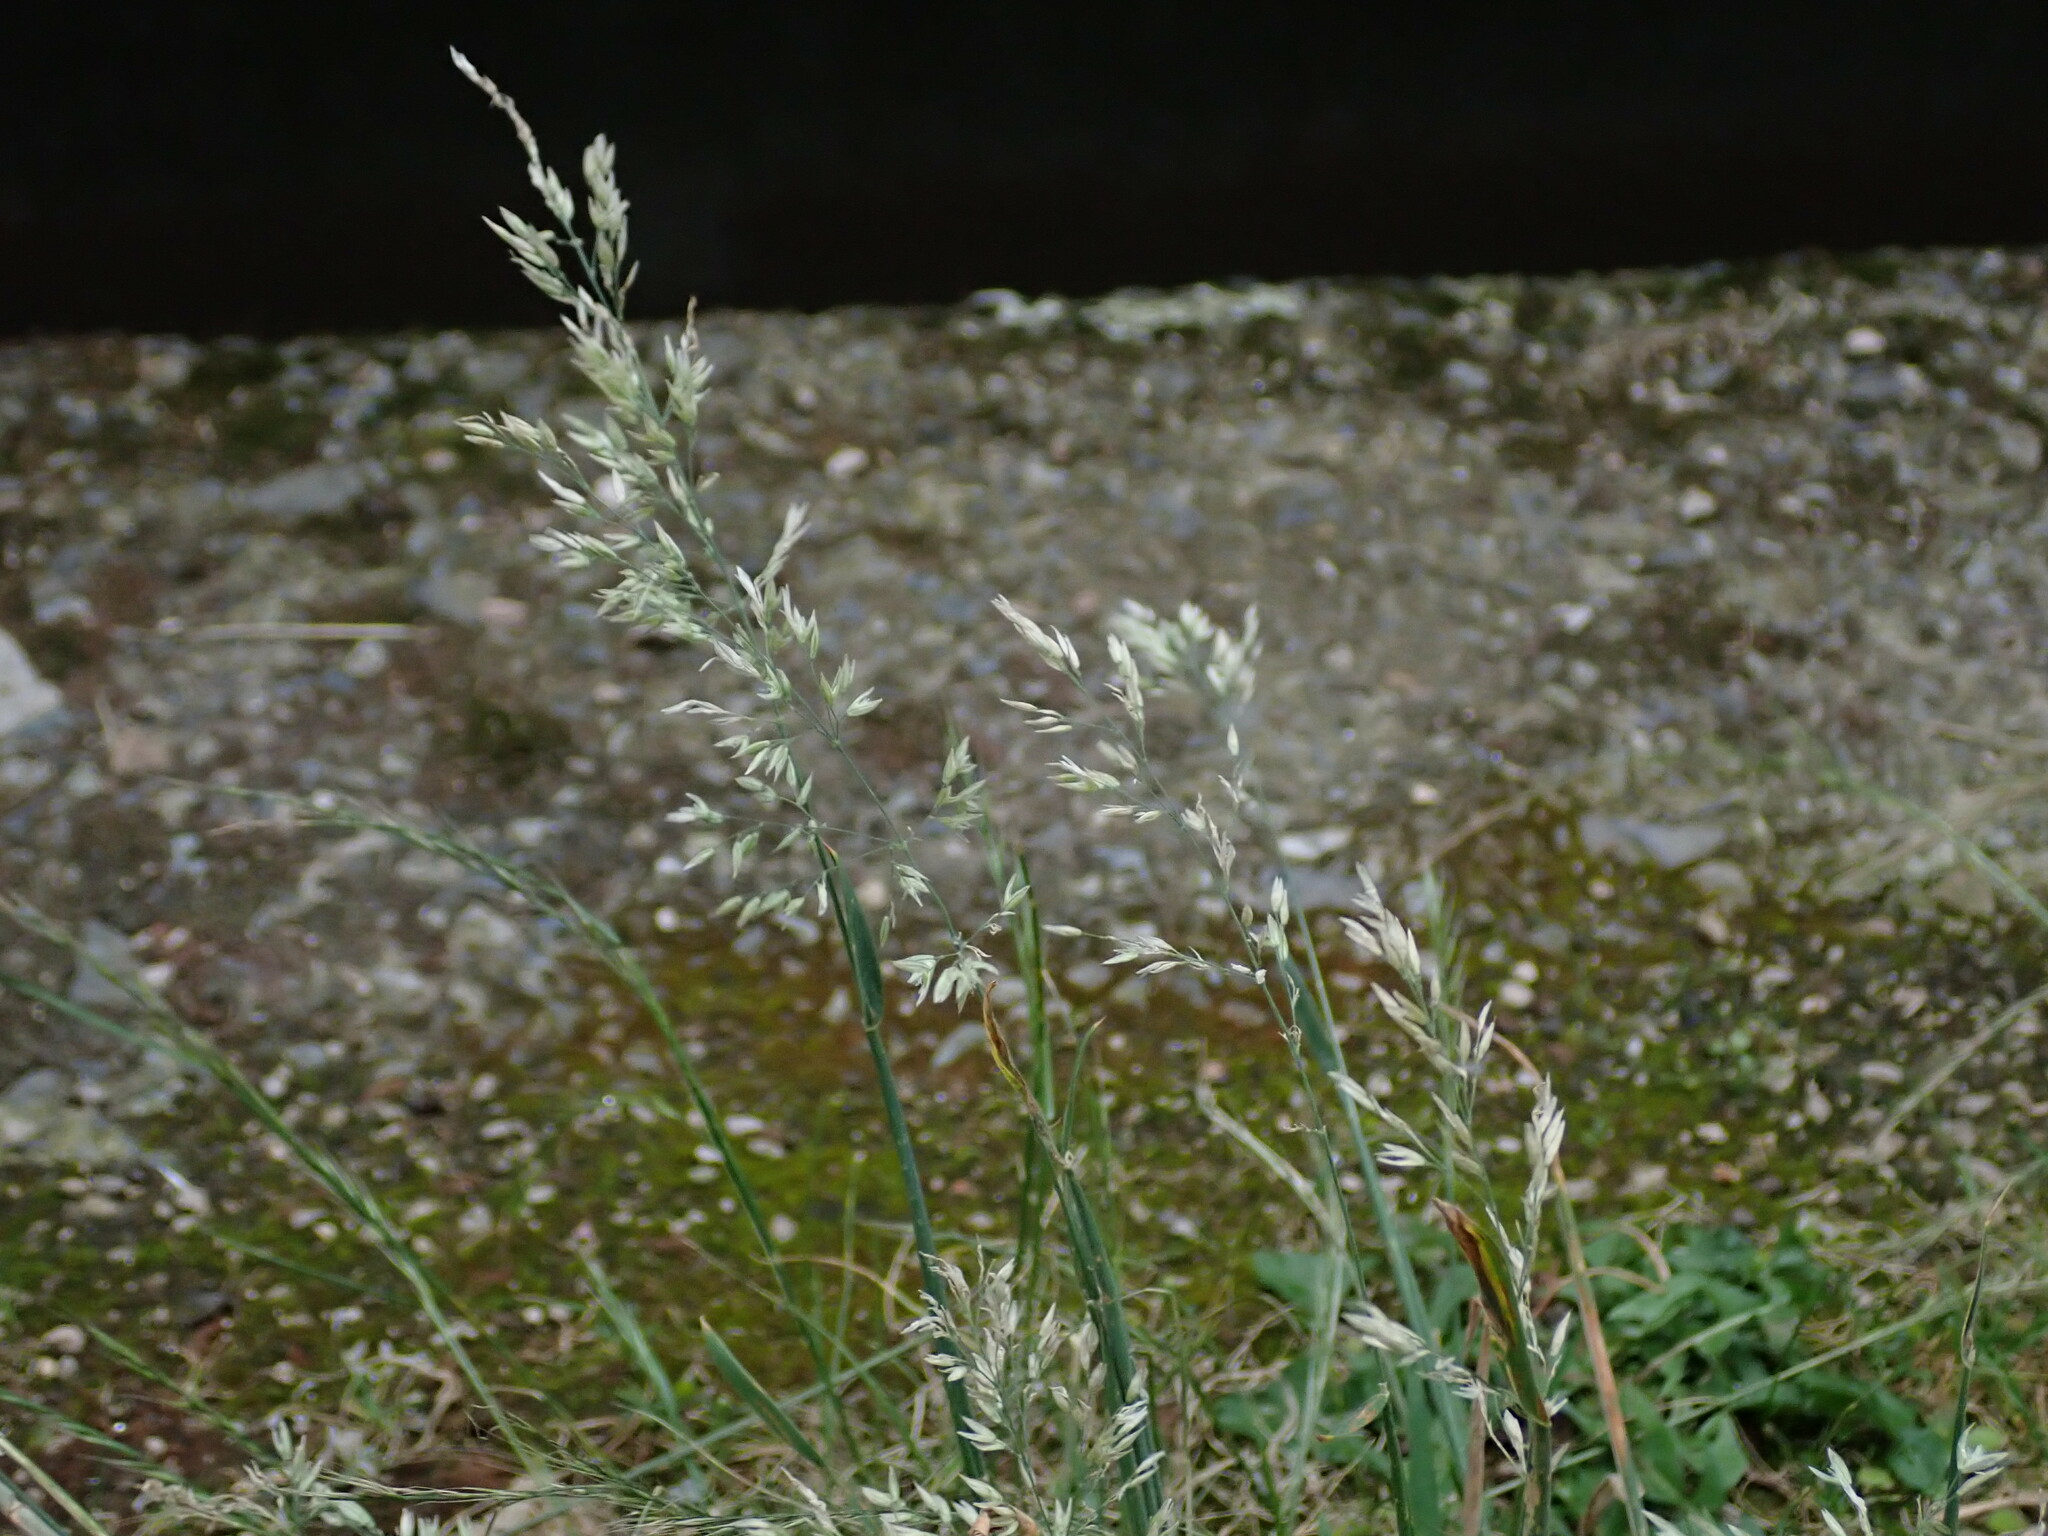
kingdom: Plantae
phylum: Tracheophyta
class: Liliopsida
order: Poales
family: Poaceae
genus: Holcus
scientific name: Holcus lanatus
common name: Yorkshire-fog
